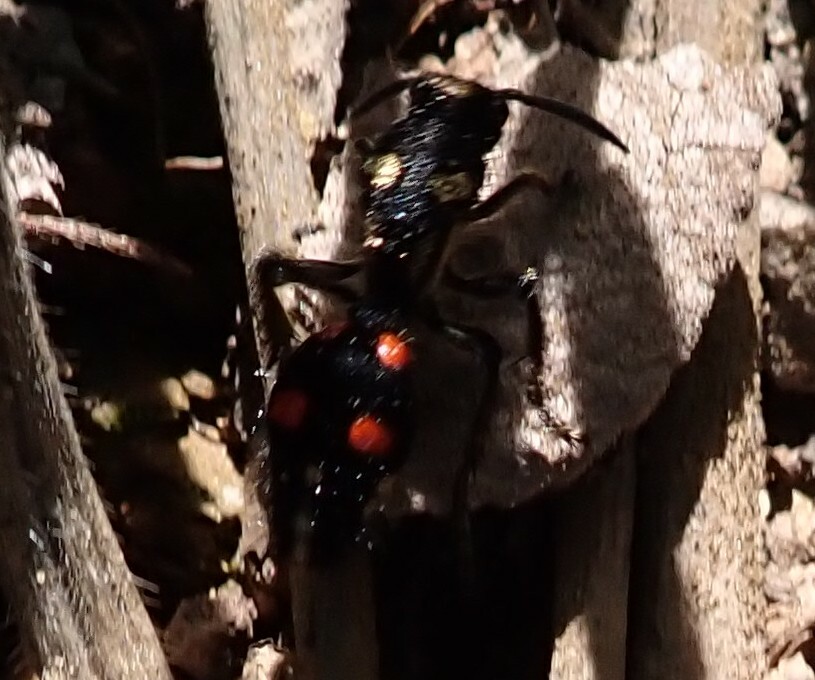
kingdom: Animalia
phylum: Arthropoda
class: Insecta
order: Hymenoptera
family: Mutillidae
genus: Traumatomutilla
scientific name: Traumatomutilla
